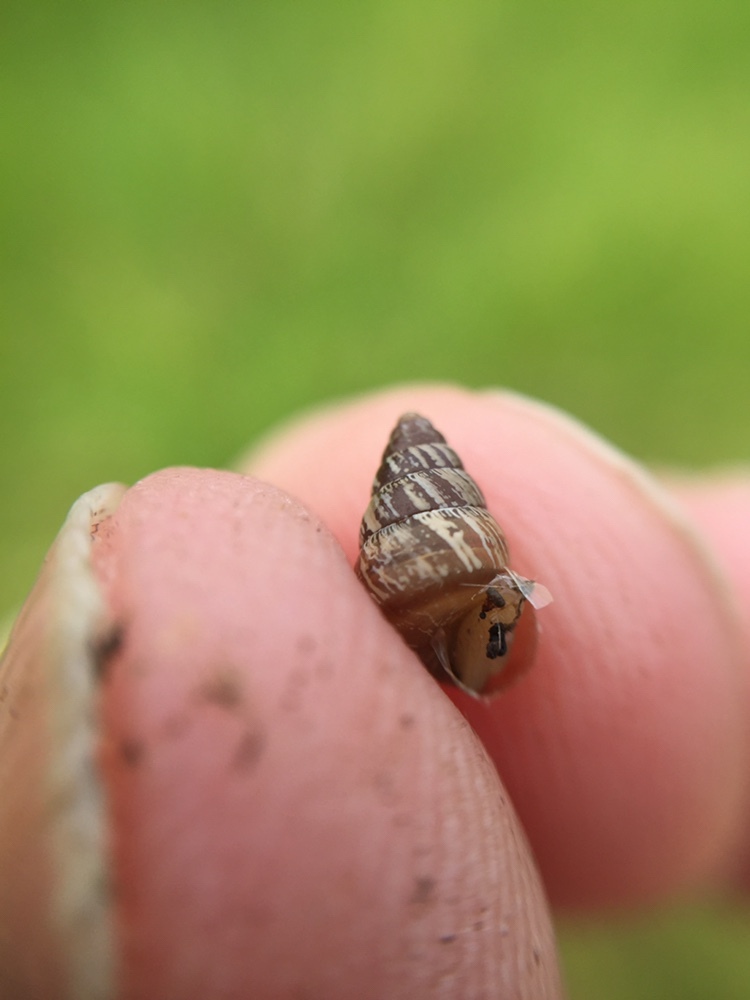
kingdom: Animalia
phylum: Mollusca
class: Gastropoda
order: Stylommatophora
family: Geomitridae
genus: Cochlicella
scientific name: Cochlicella barbara
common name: Potbellied helicellid
